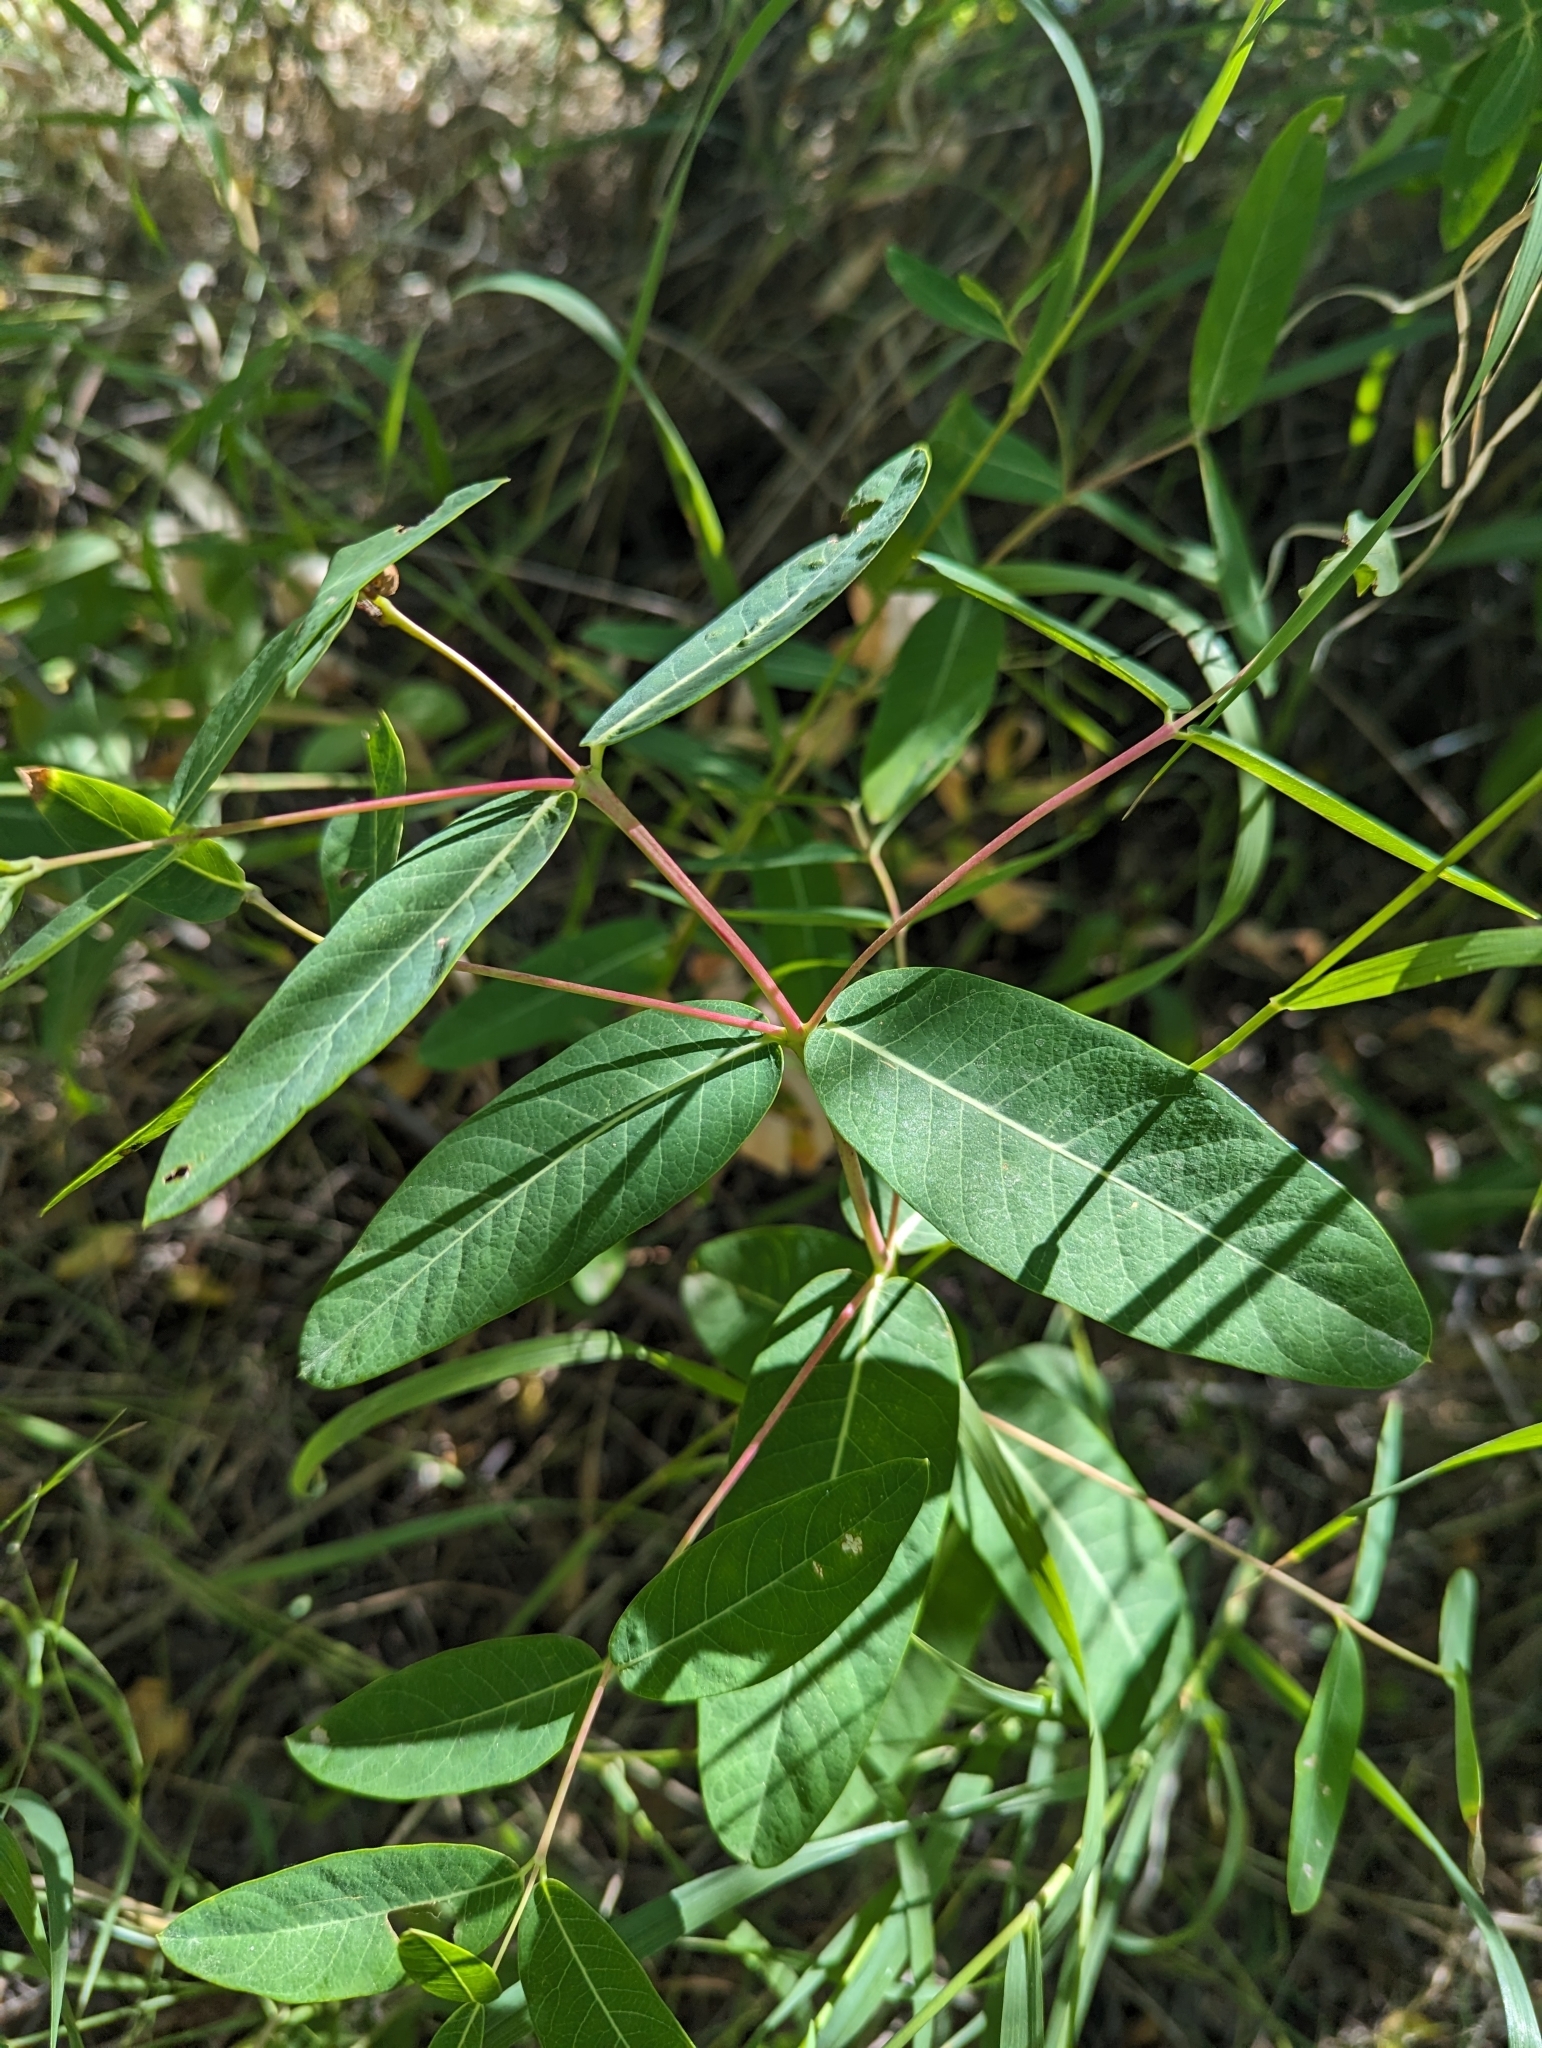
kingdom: Plantae
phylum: Tracheophyta
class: Magnoliopsida
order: Gentianales
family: Apocynaceae
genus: Apocynum
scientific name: Apocynum cannabinum
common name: Hemp dogbane
